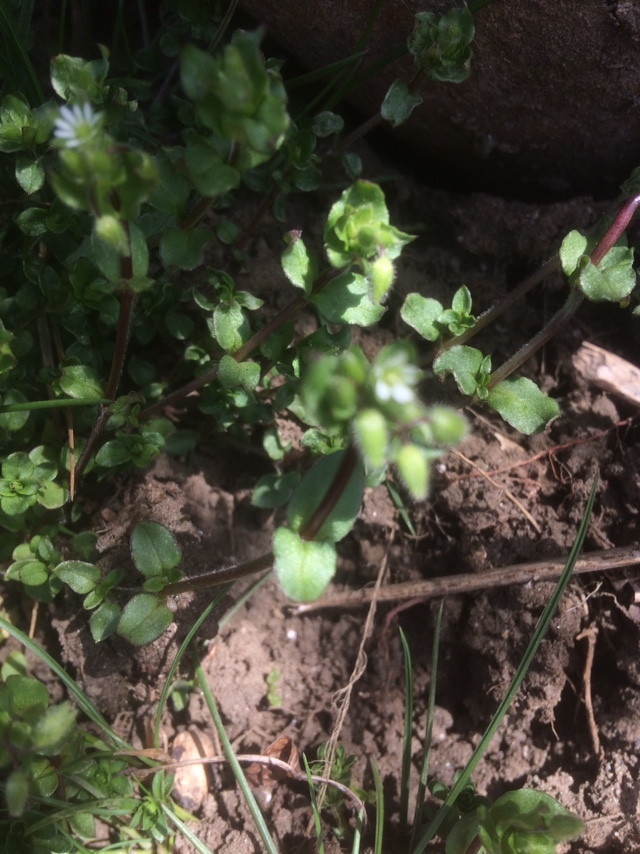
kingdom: Plantae
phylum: Tracheophyta
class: Magnoliopsida
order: Caryophyllales
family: Caryophyllaceae
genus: Stellaria
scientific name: Stellaria media
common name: Common chickweed
